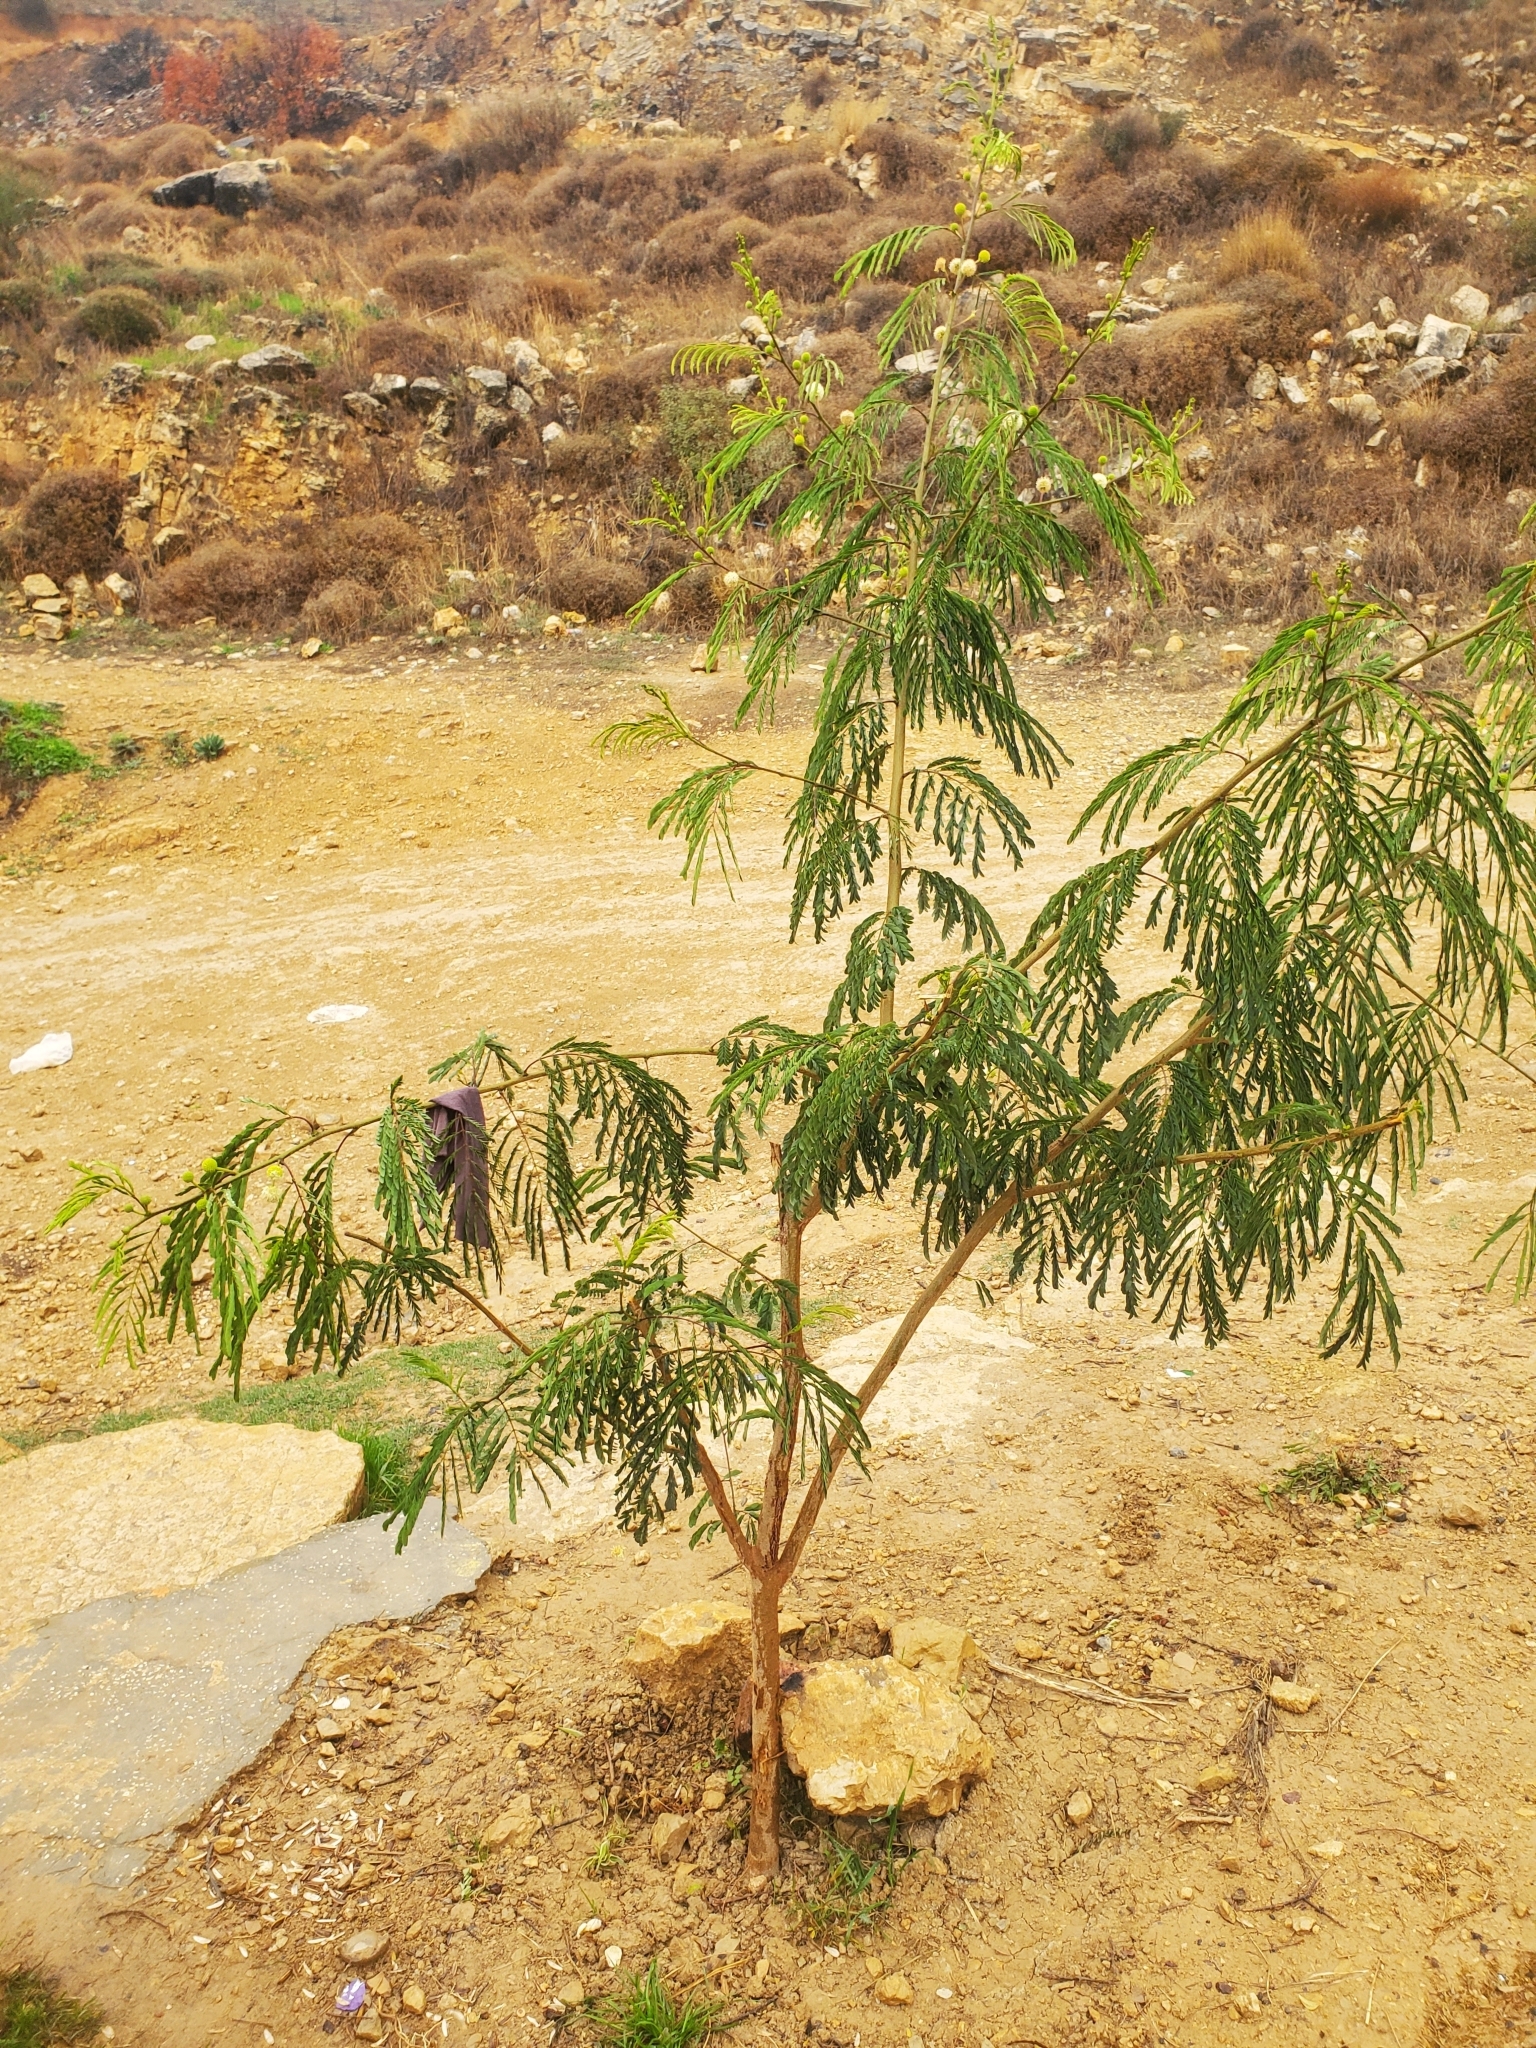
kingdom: Plantae
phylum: Tracheophyta
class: Magnoliopsida
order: Fabales
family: Fabaceae
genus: Leucaena
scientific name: Leucaena leucocephala
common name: White leadtree
